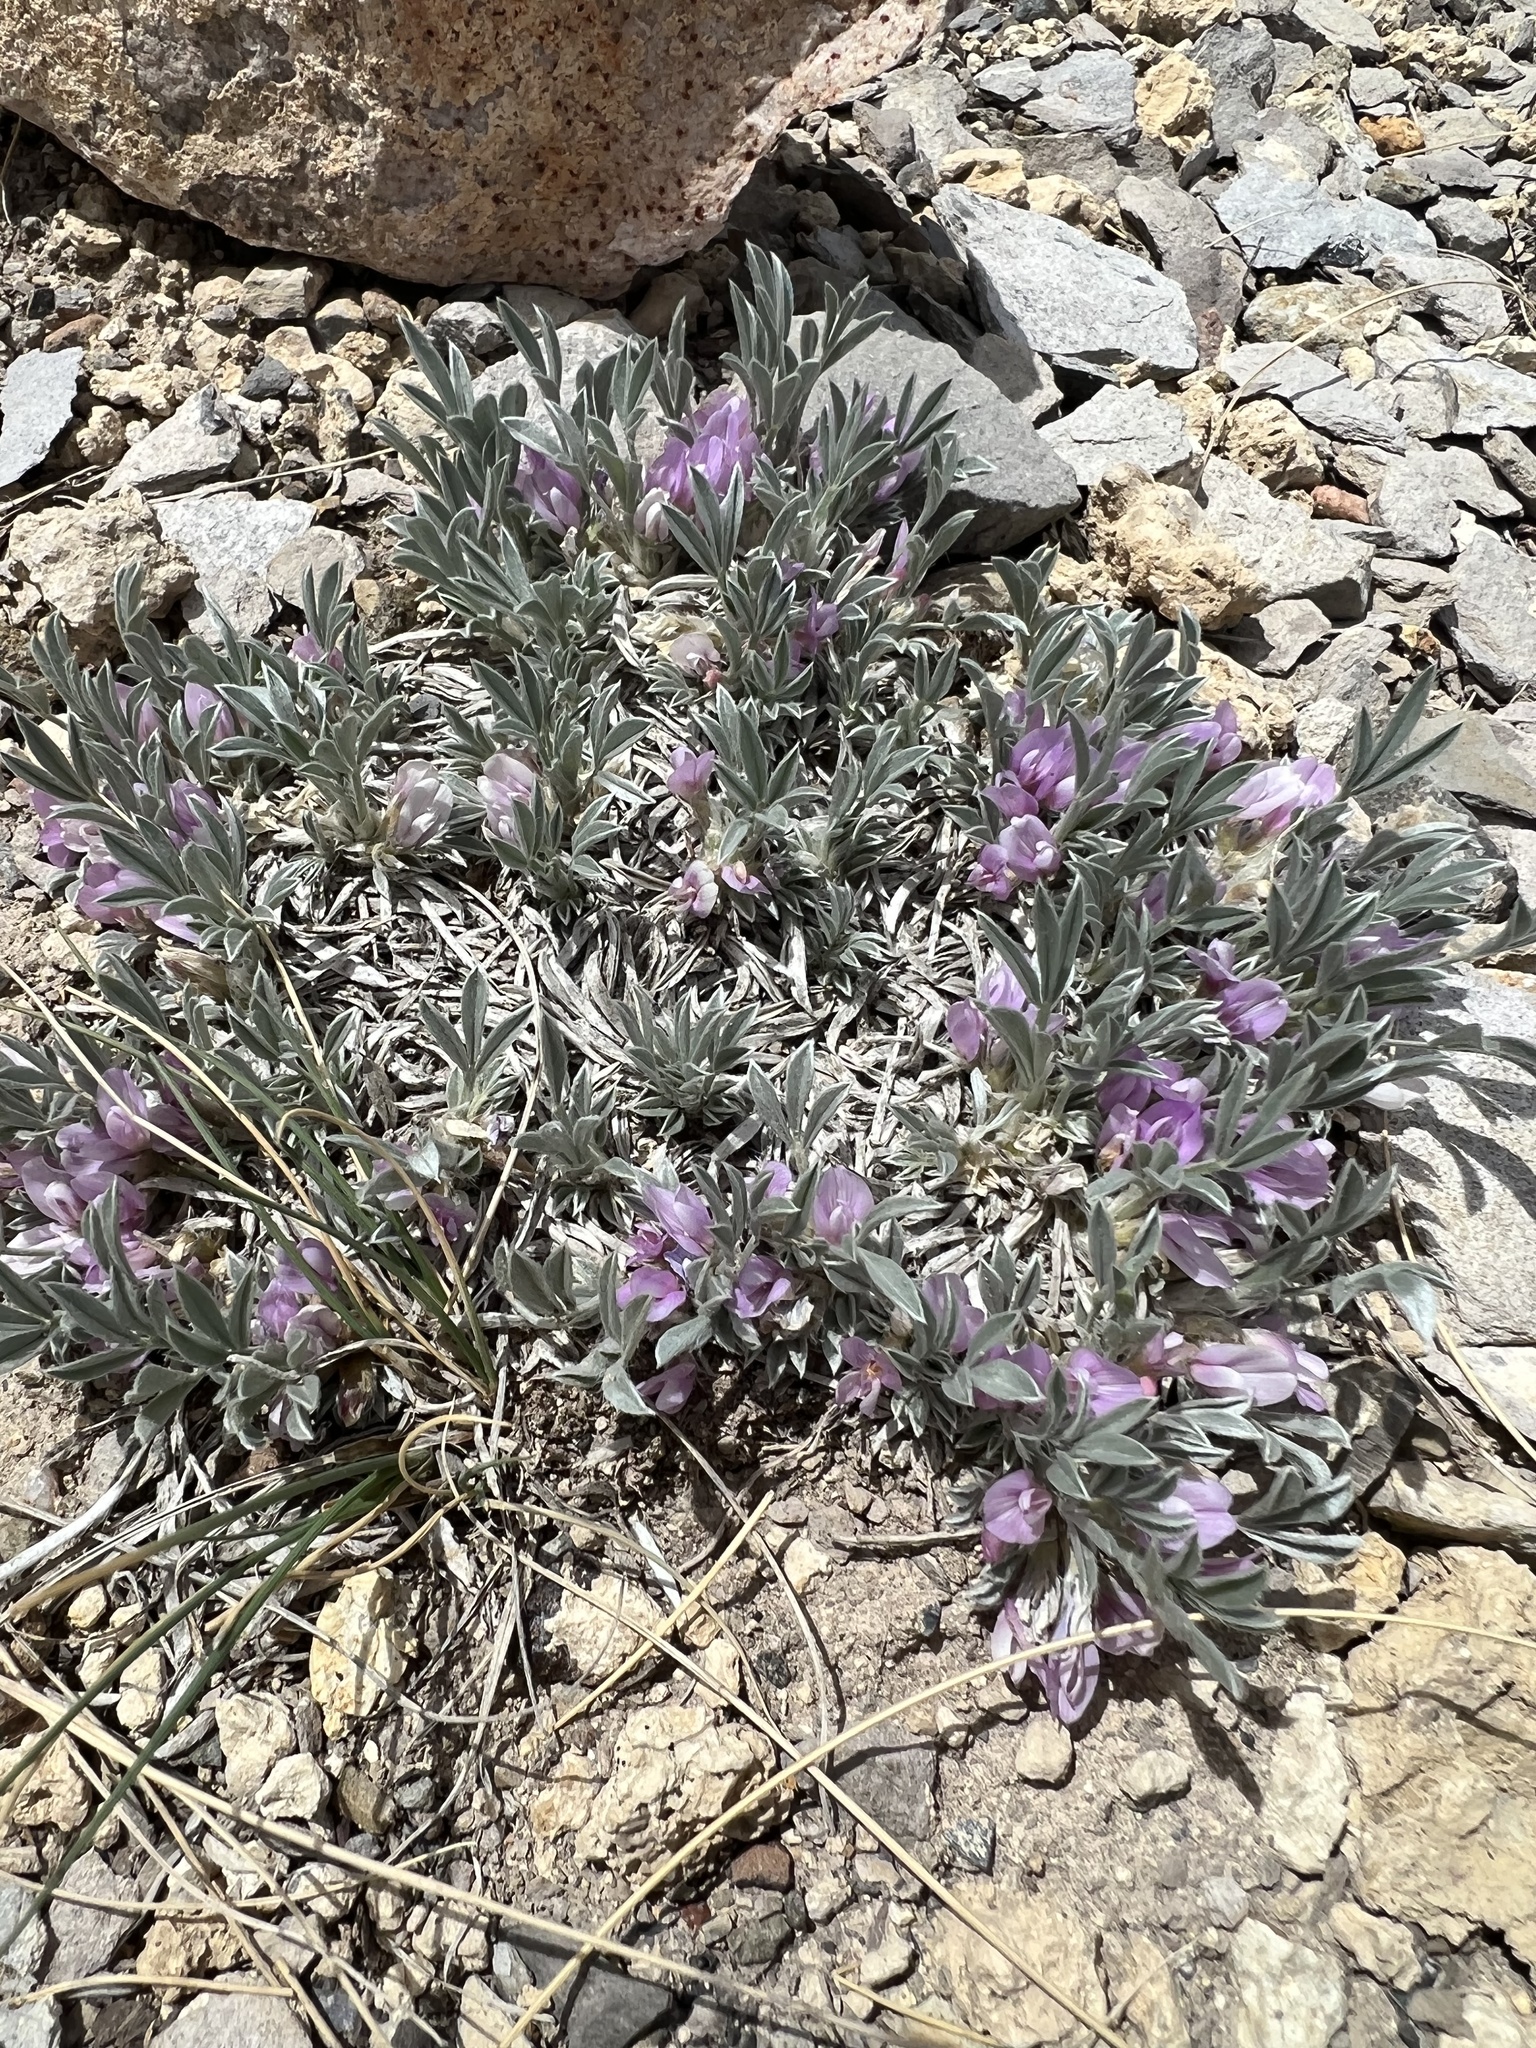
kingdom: Plantae
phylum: Tracheophyta
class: Magnoliopsida
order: Fabales
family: Fabaceae
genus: Astragalus
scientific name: Astragalus tridactylicus
